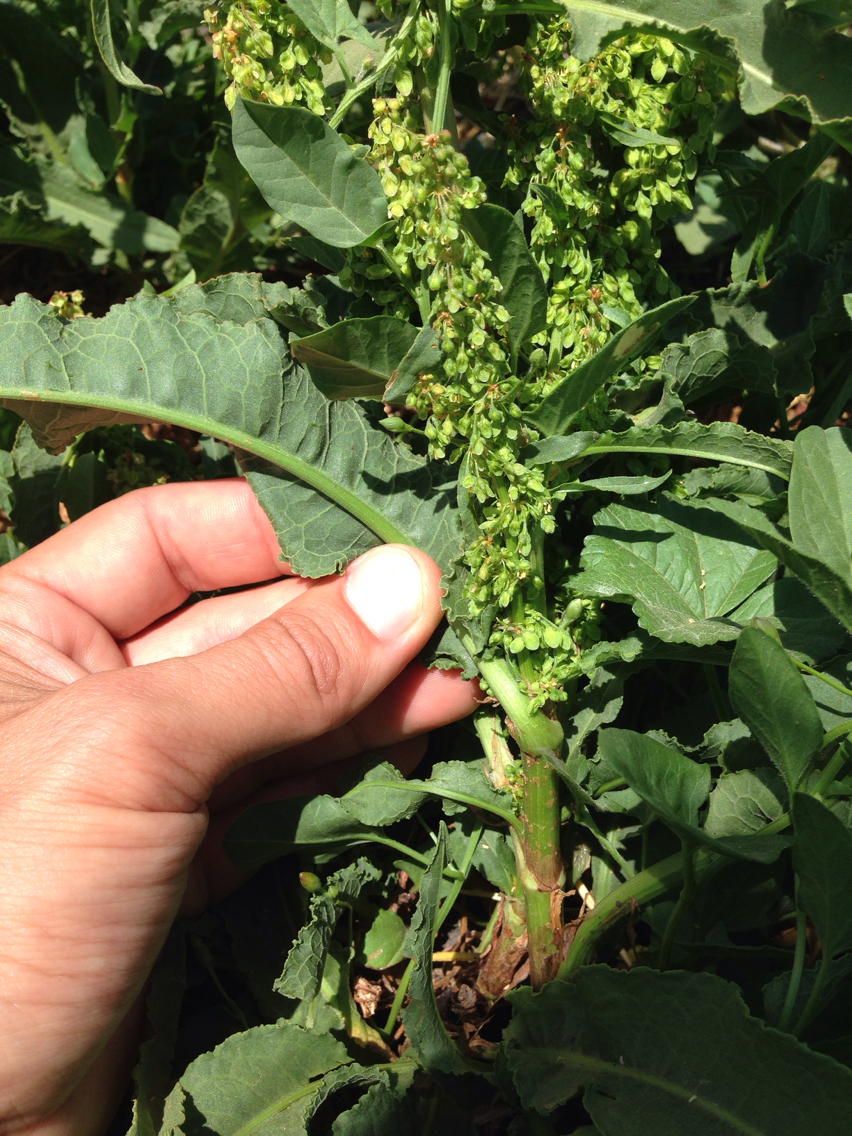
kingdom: Plantae
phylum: Tracheophyta
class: Magnoliopsida
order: Caryophyllales
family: Polygonaceae
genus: Rumex
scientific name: Rumex crispus
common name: Curled dock
